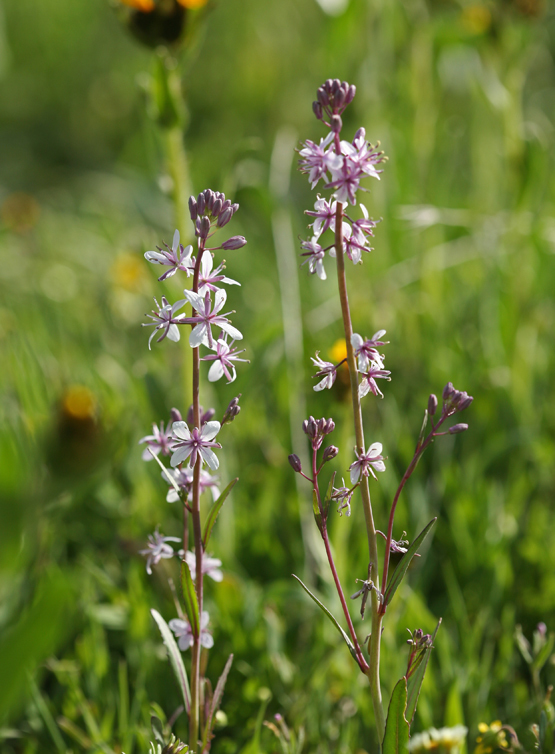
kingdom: Plantae
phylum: Tracheophyta
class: Magnoliopsida
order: Brassicales
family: Brassicaceae
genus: Streptanthus
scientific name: Streptanthus anceps
